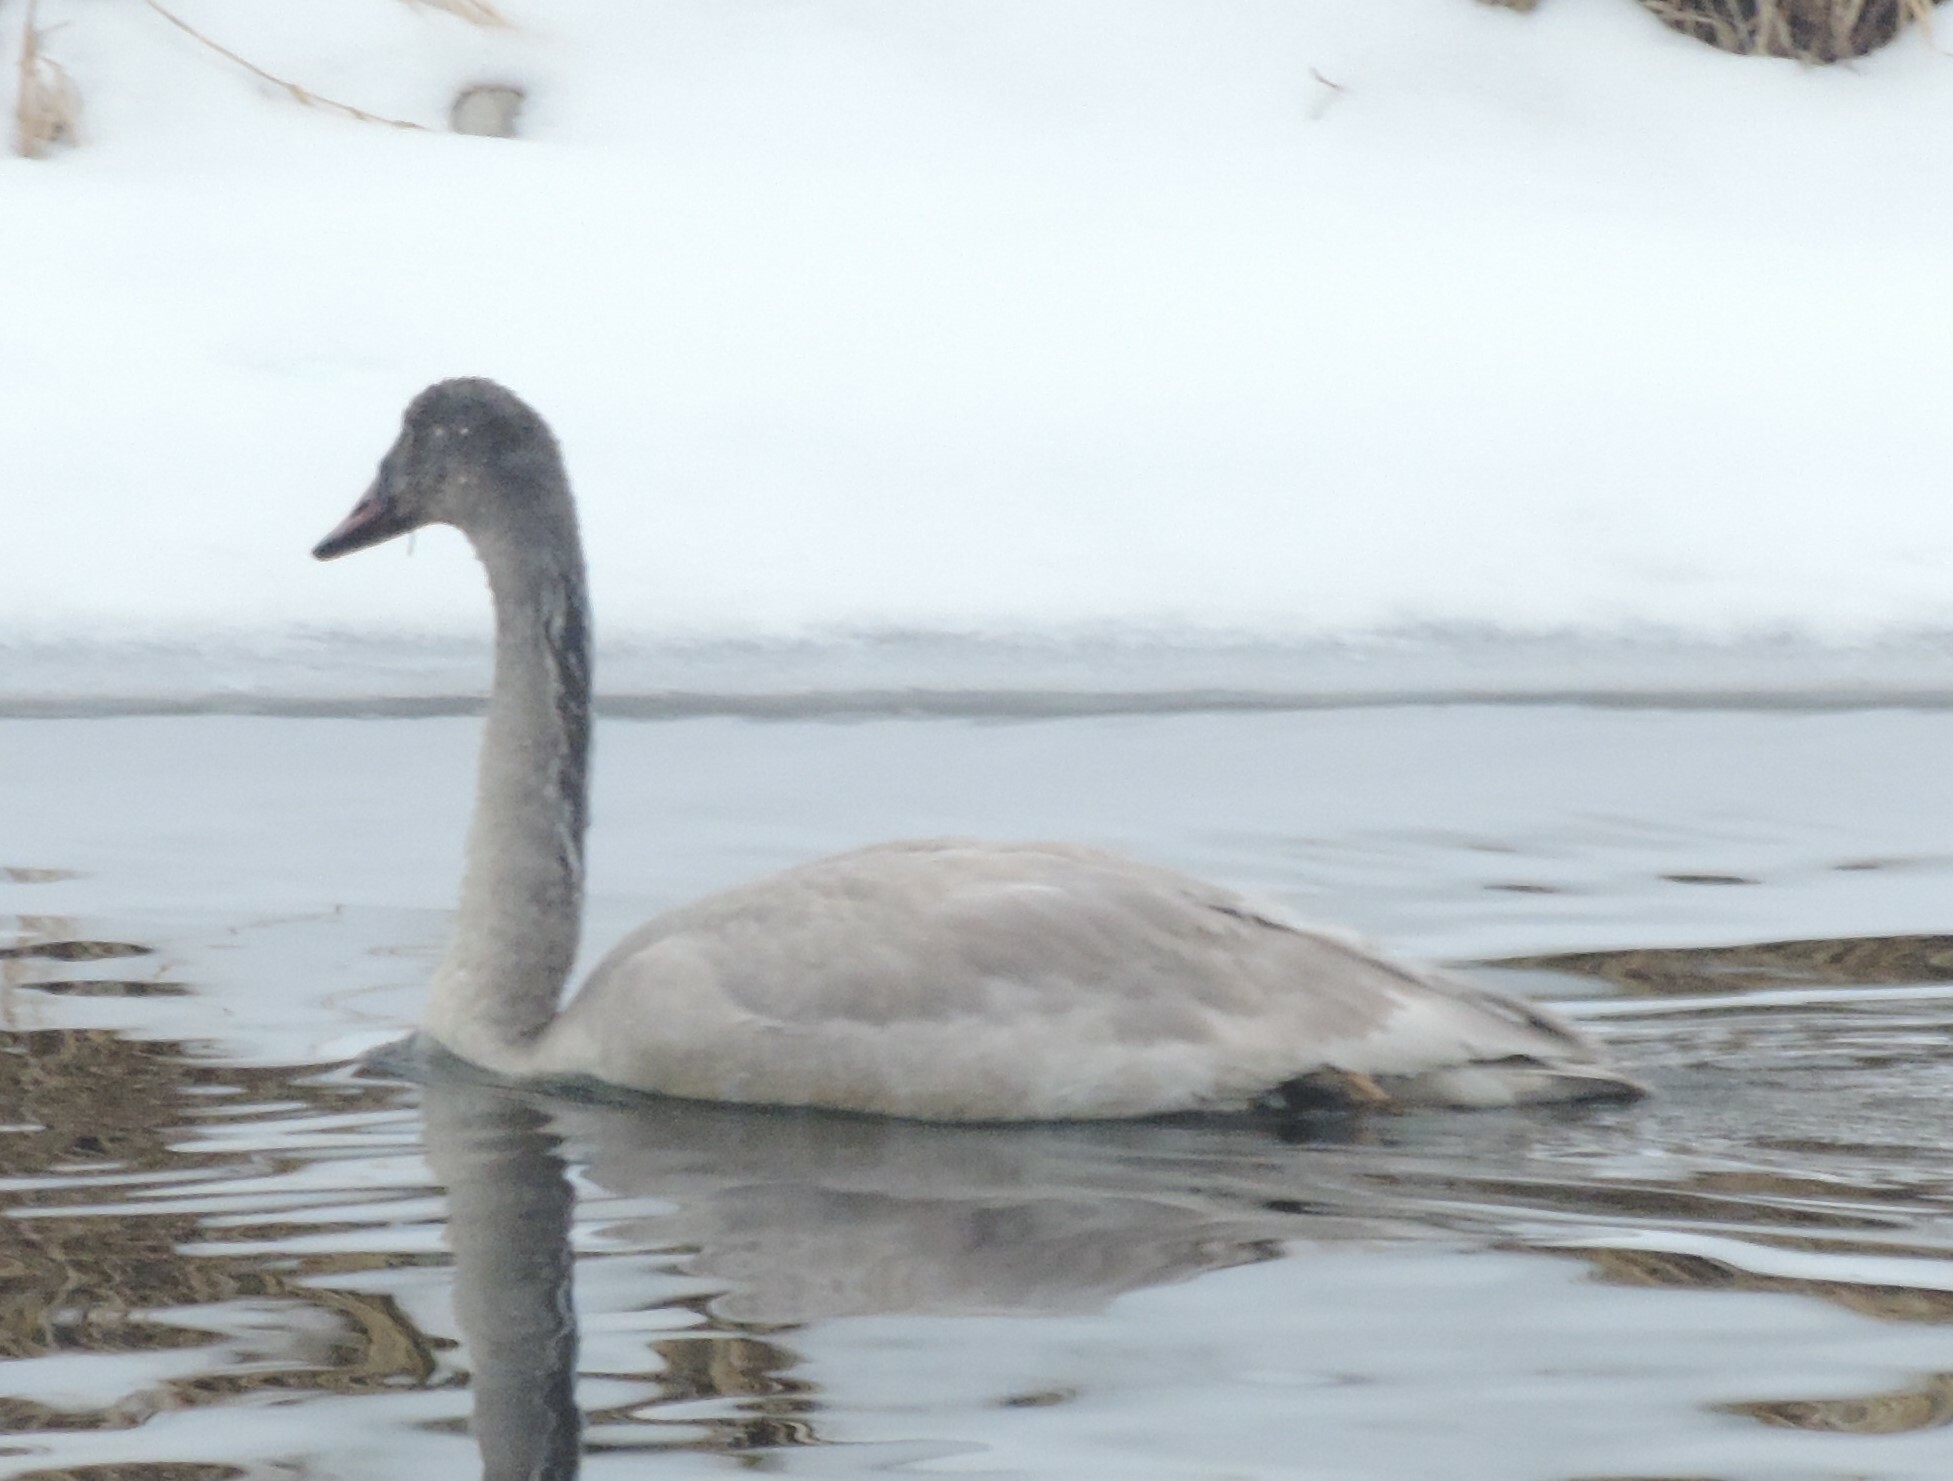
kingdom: Animalia
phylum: Chordata
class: Aves
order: Anseriformes
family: Anatidae
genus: Cygnus
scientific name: Cygnus buccinator
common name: Trumpeter swan
